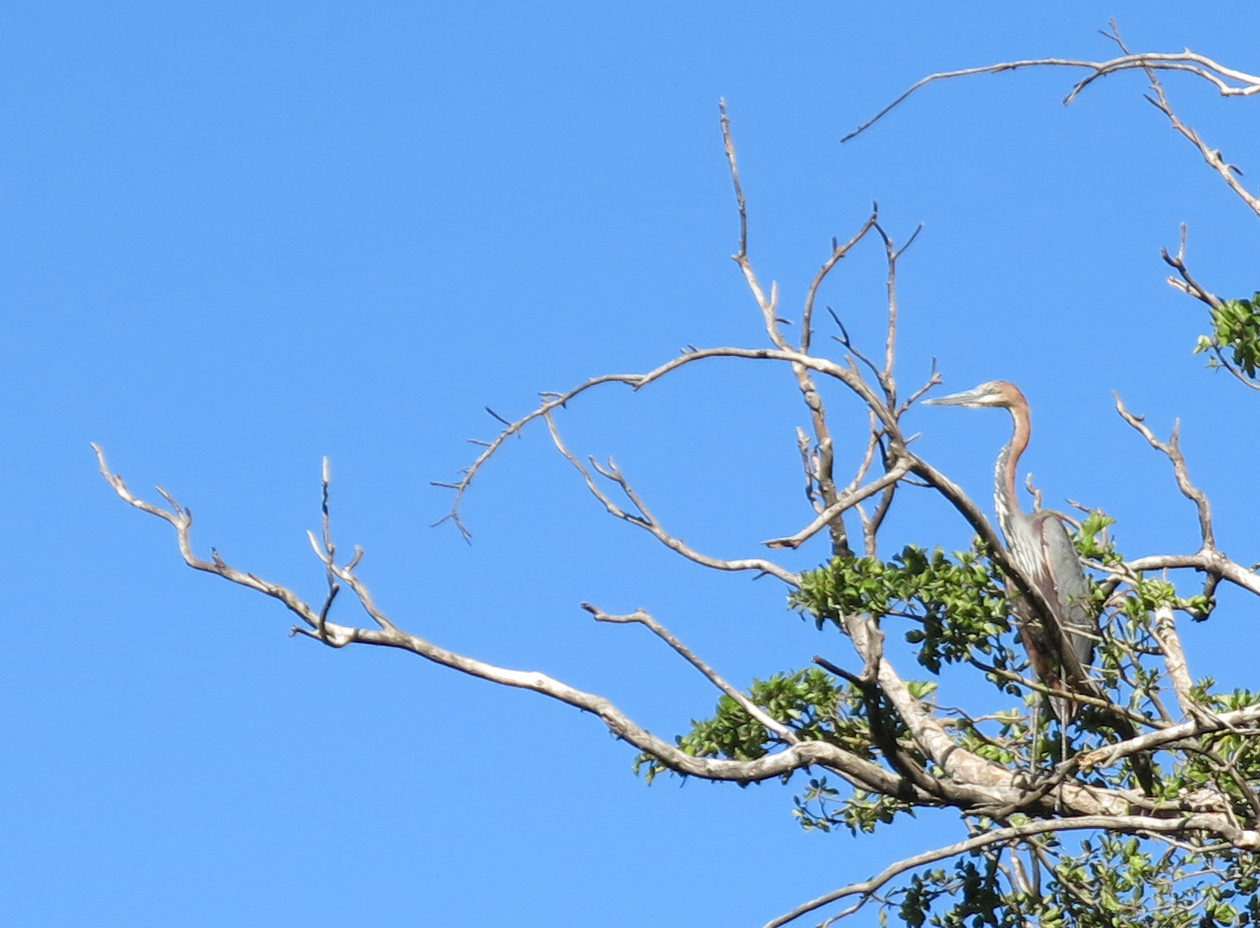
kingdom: Animalia
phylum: Chordata
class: Aves
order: Pelecaniformes
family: Ardeidae
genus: Ardea
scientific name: Ardea goliath
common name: Goliath heron
